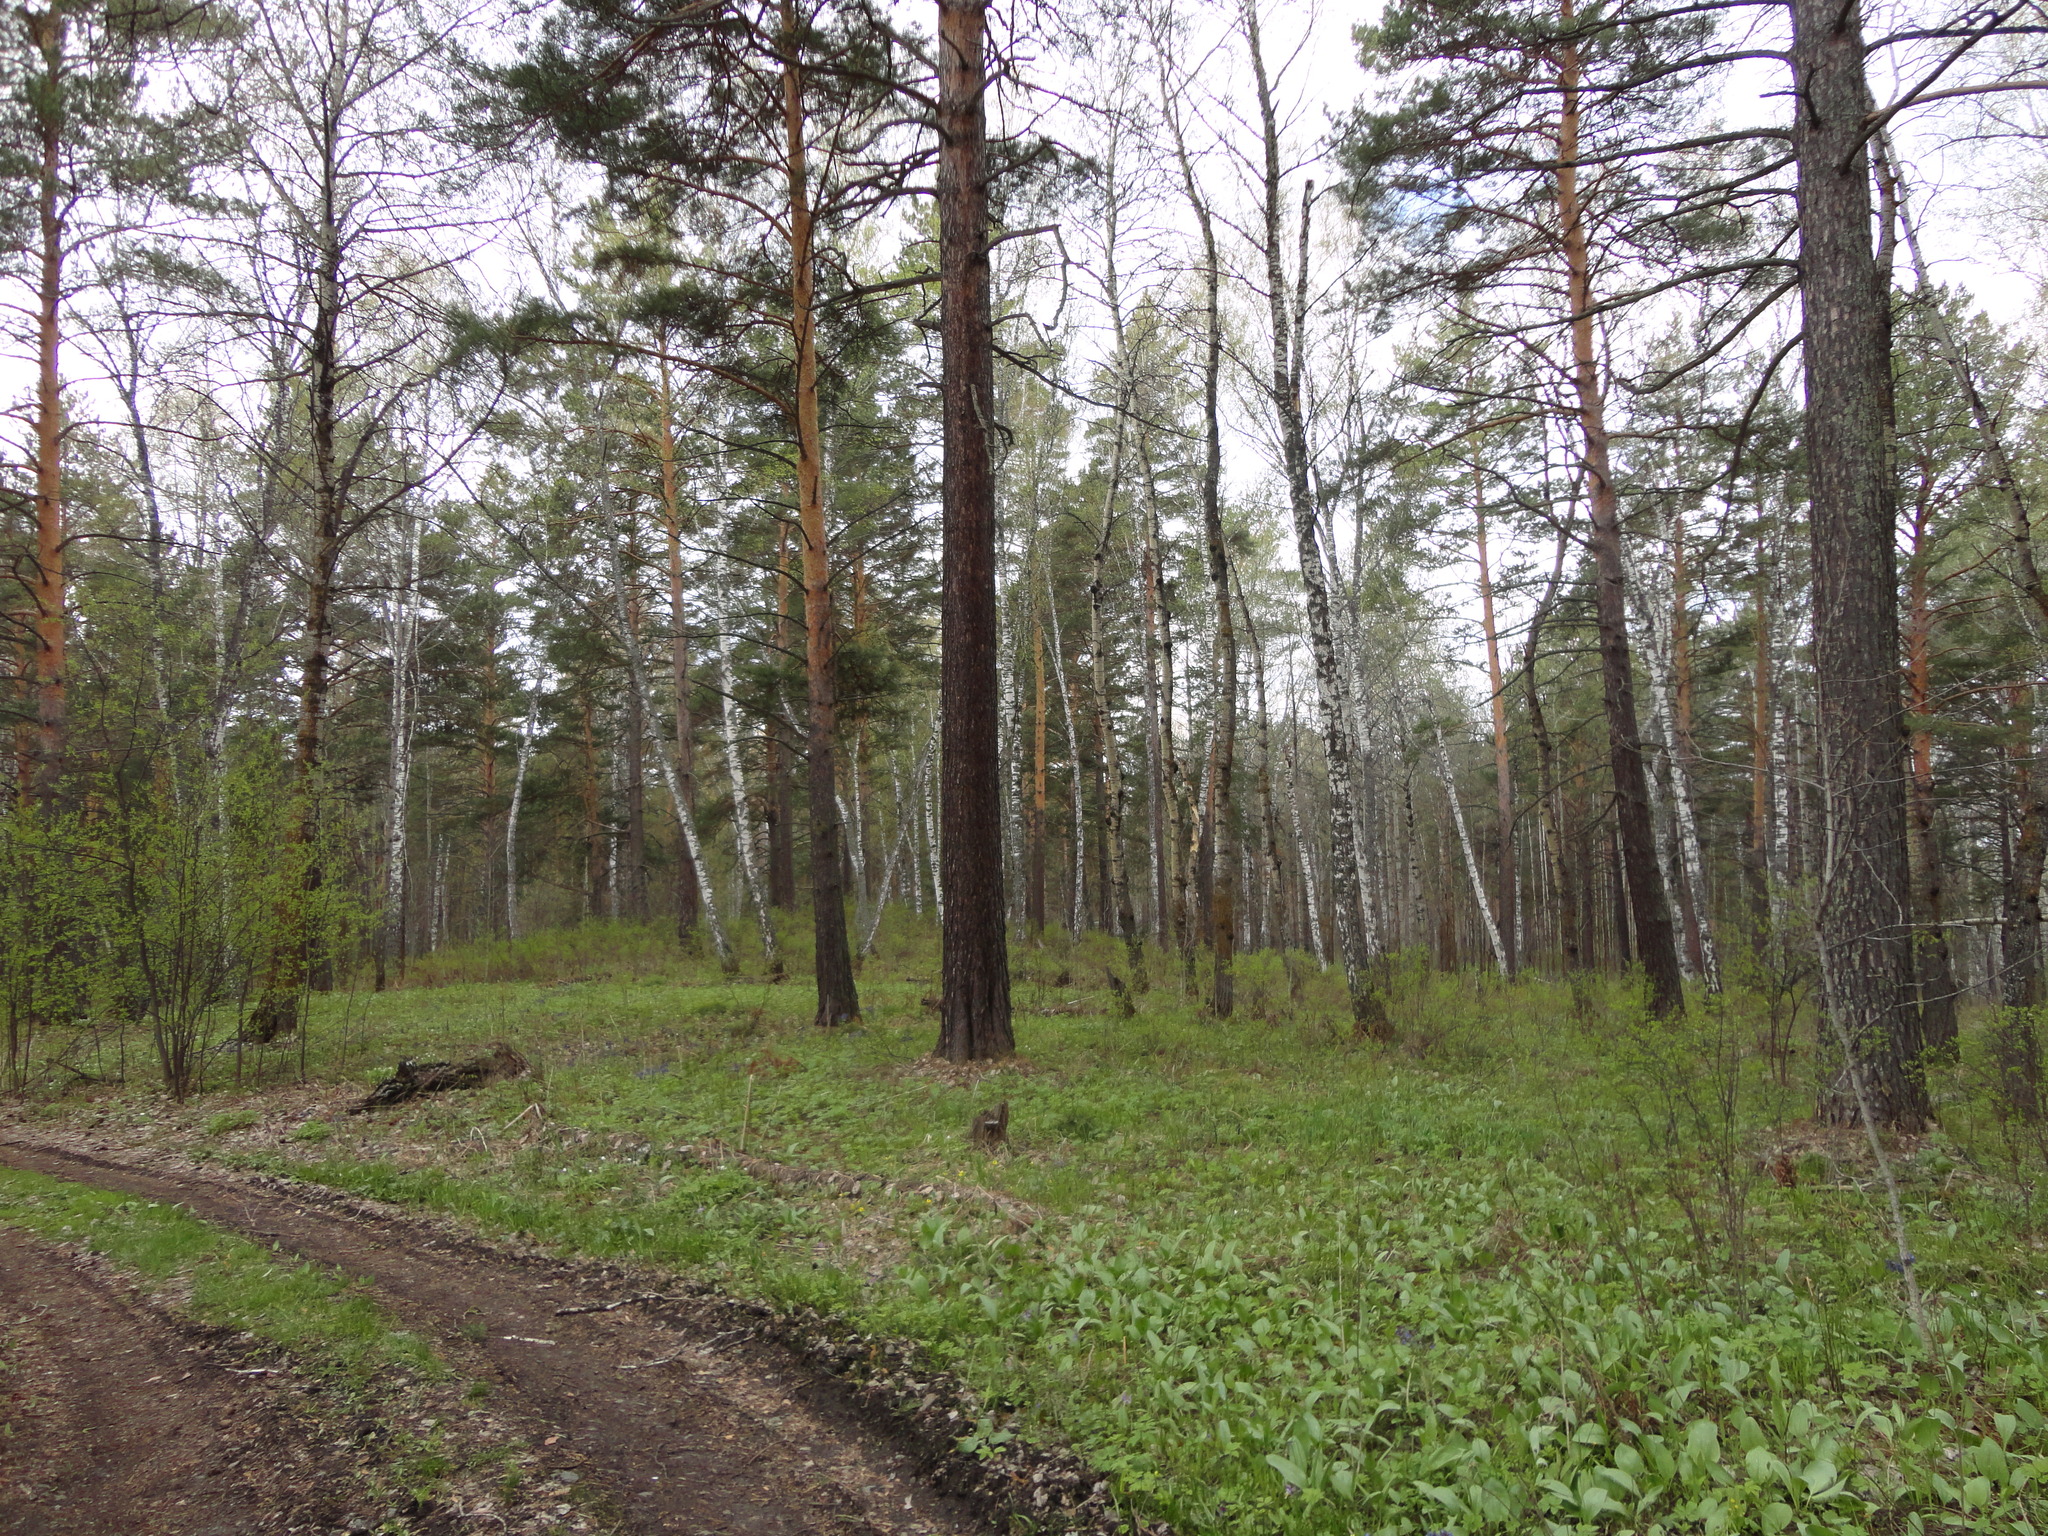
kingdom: Plantae
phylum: Tracheophyta
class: Pinopsida
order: Pinales
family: Pinaceae
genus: Pinus
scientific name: Pinus sylvestris
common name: Scots pine
